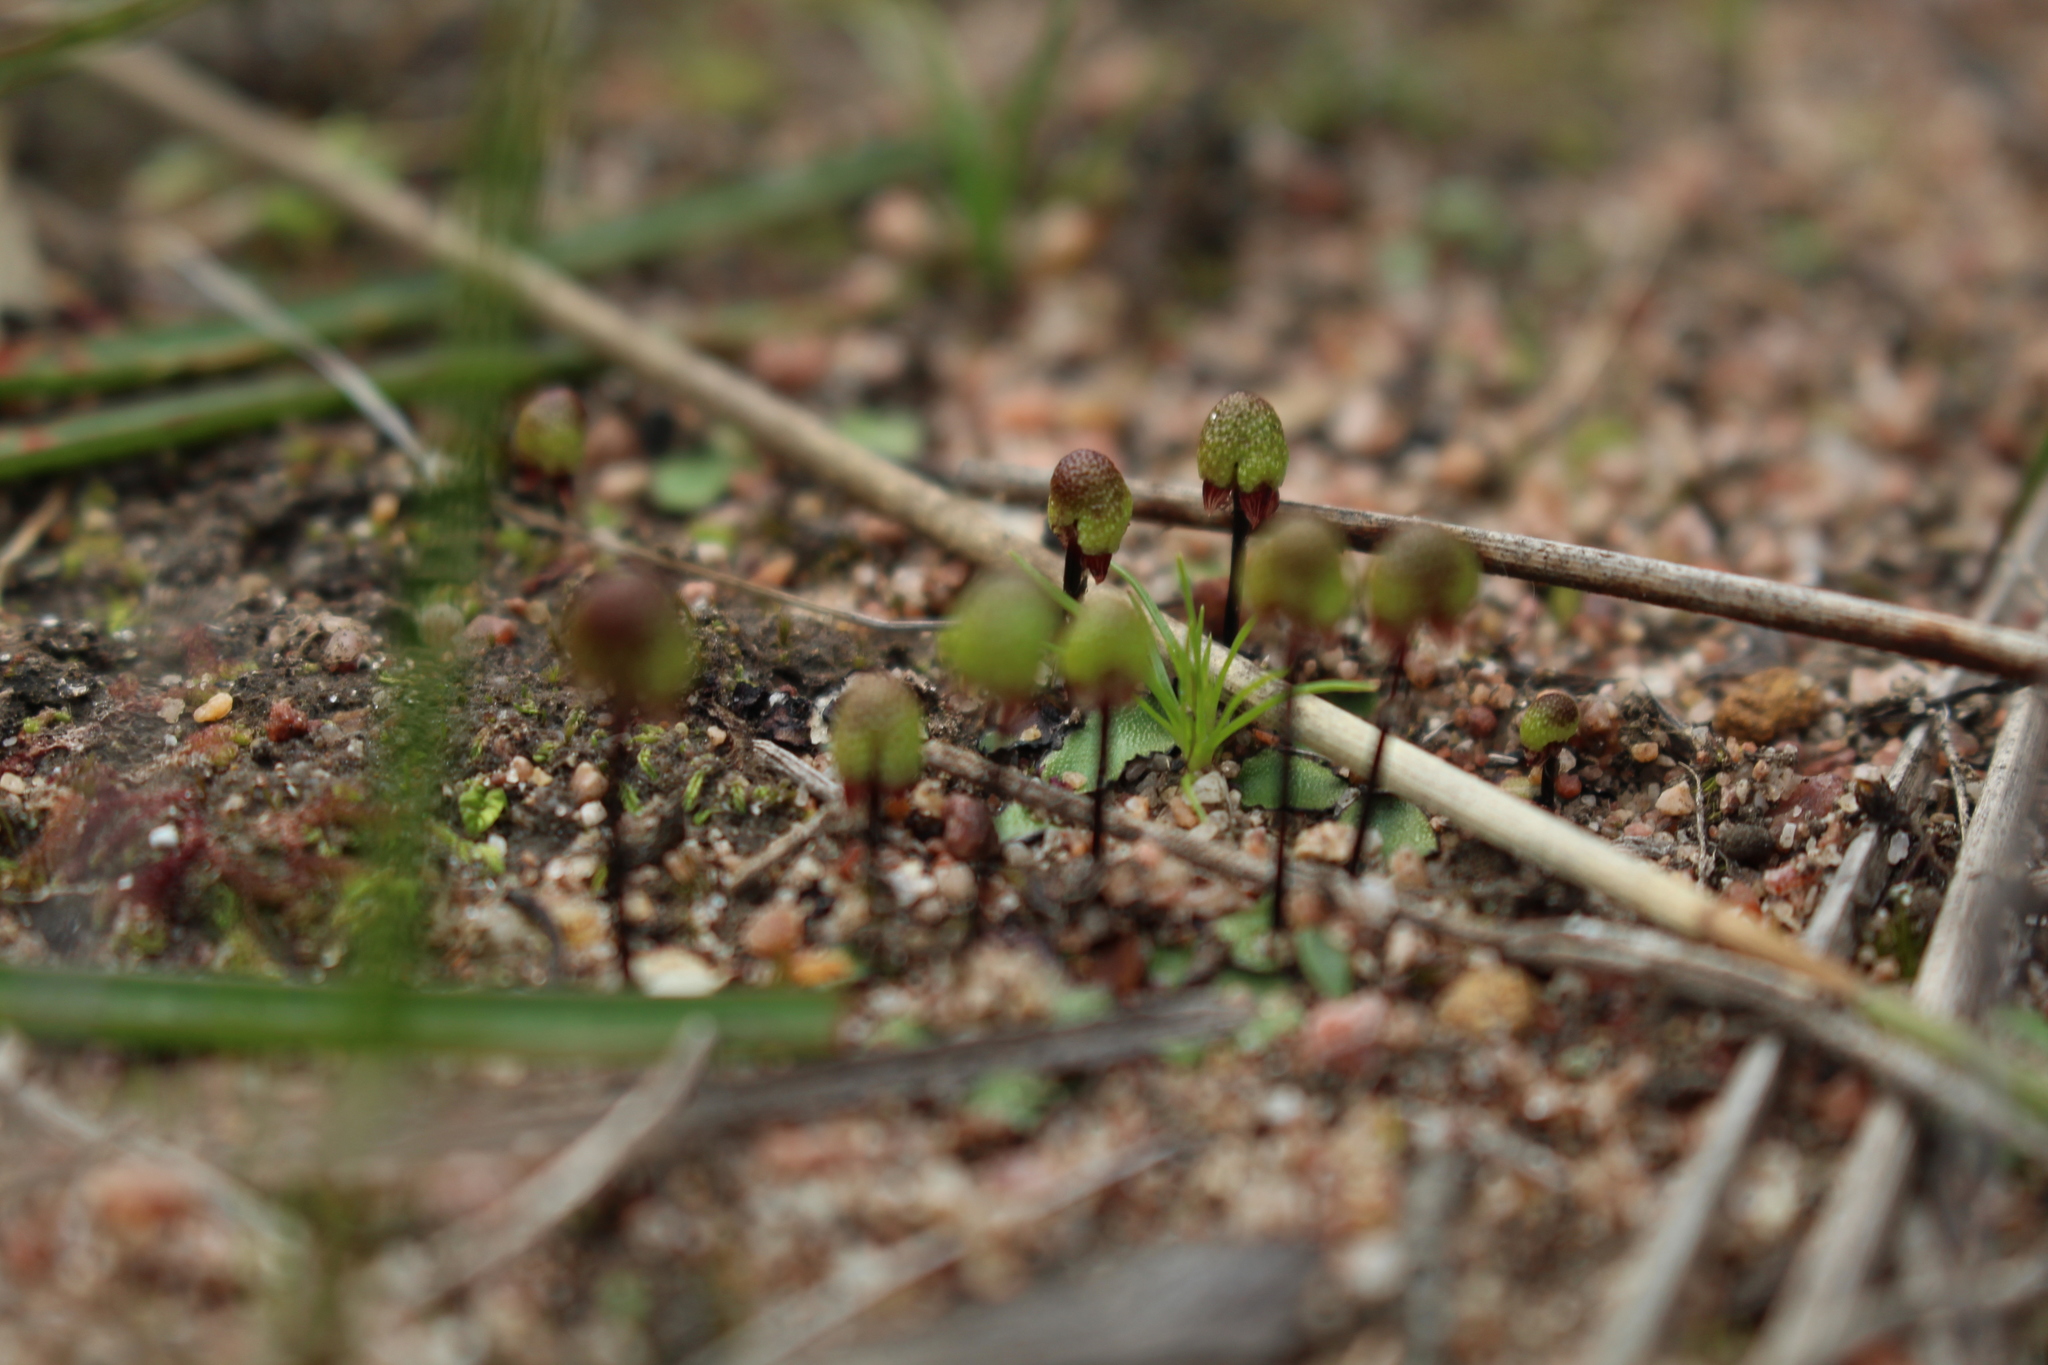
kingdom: Plantae
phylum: Marchantiophyta
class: Marchantiopsida
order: Marchantiales
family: Aytoniaceae
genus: Asterella
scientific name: Asterella drummondii
